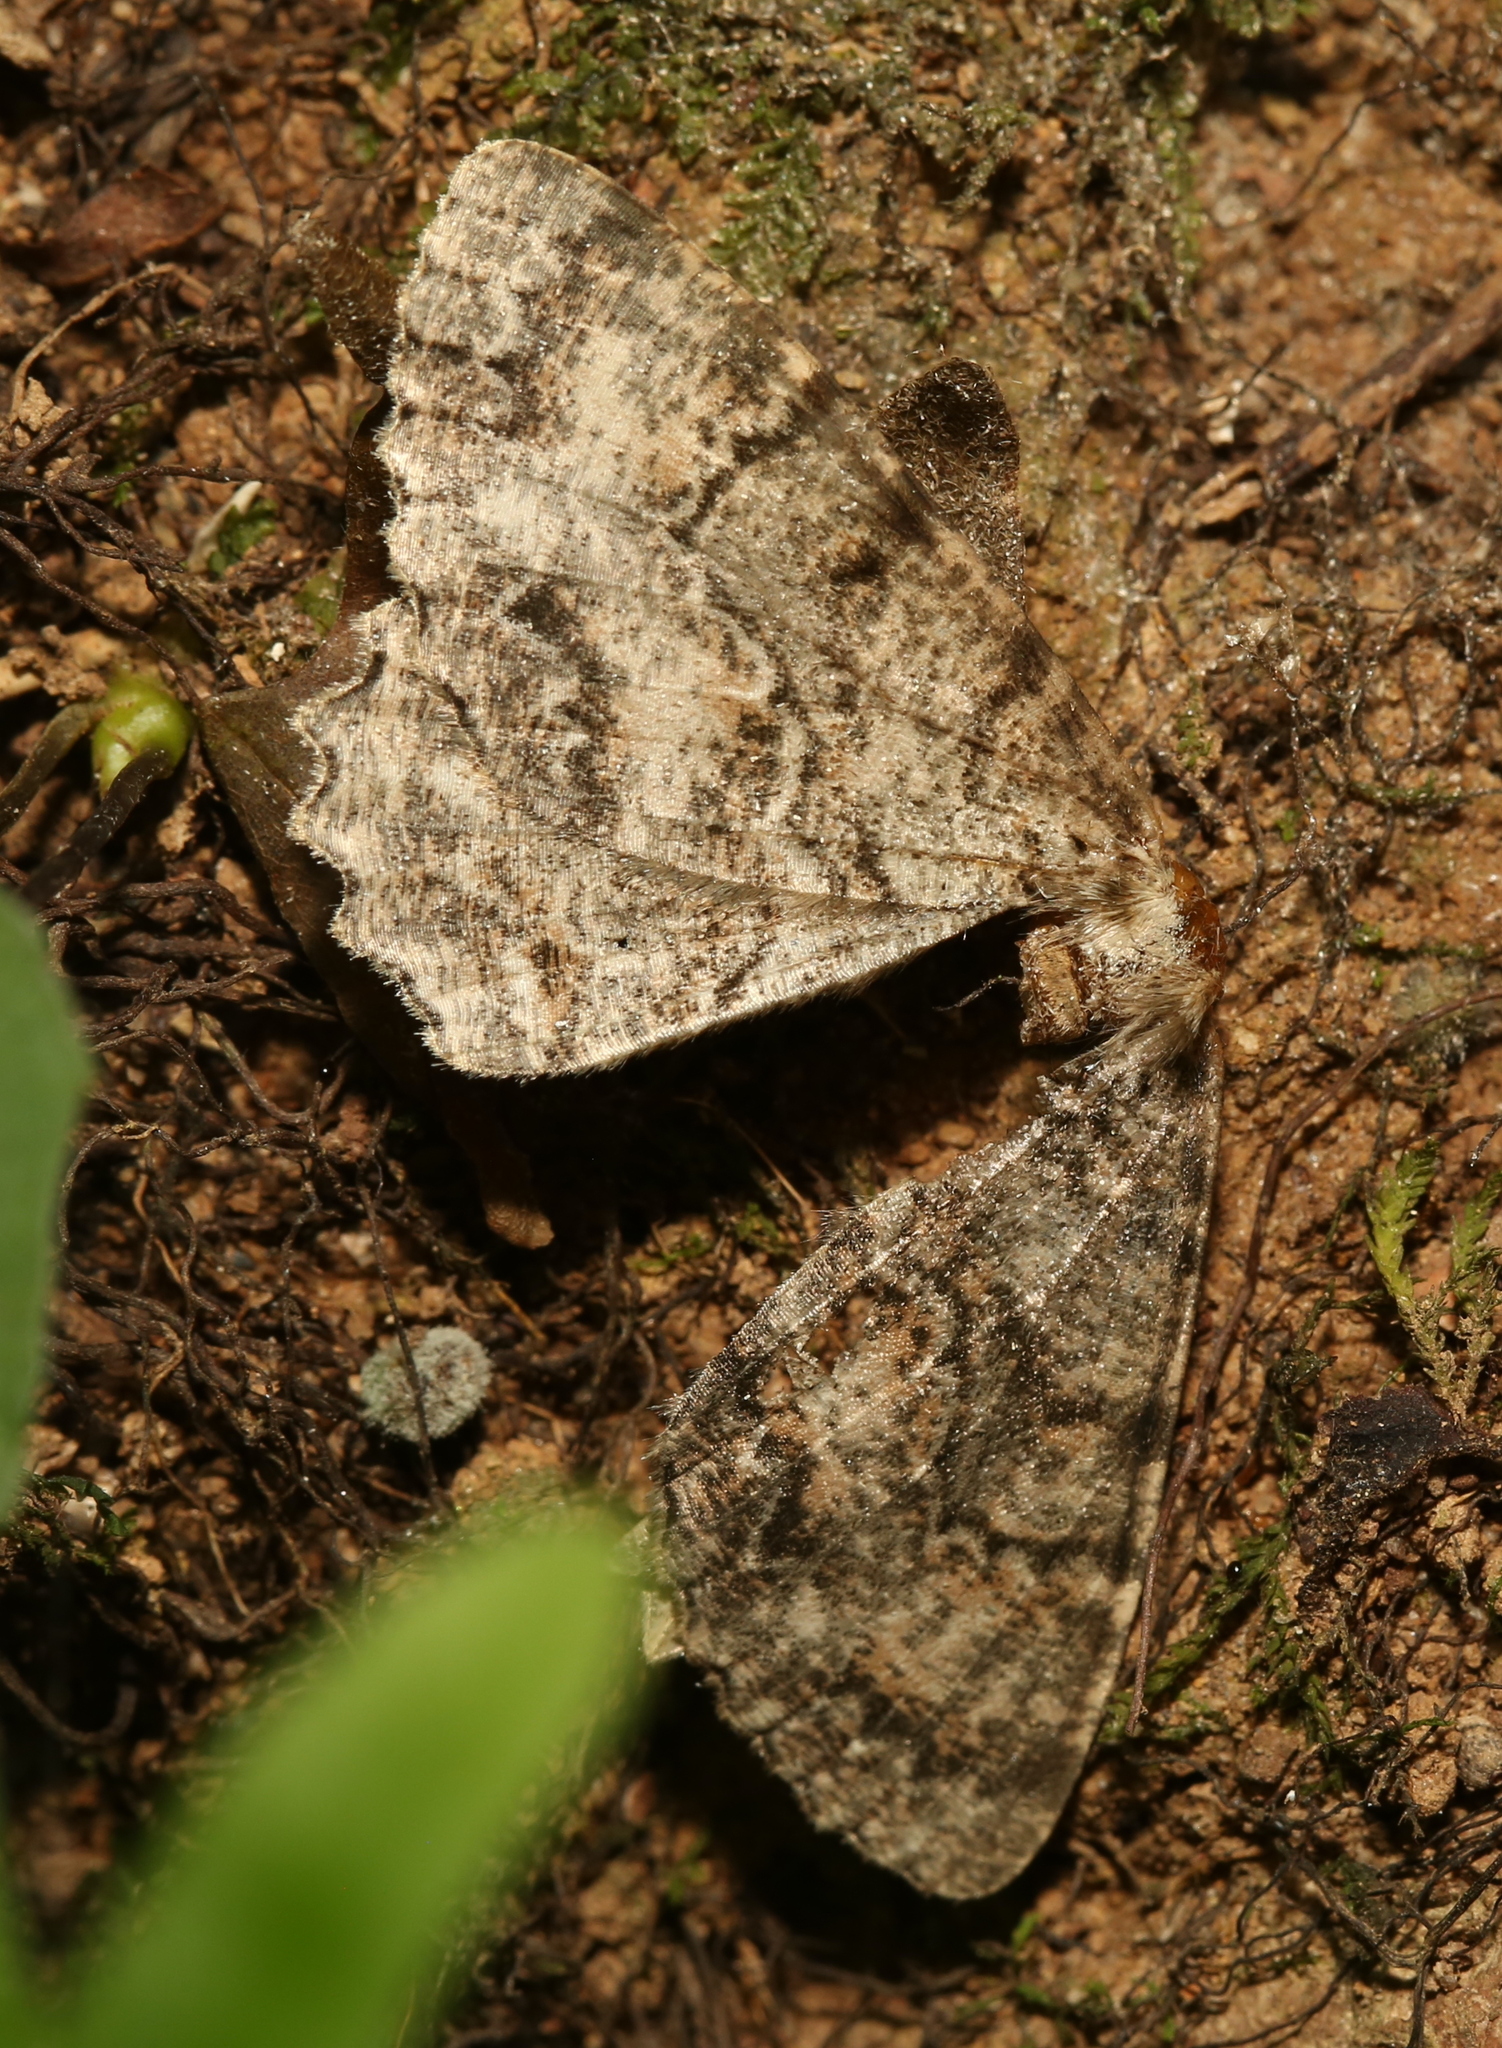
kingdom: Animalia
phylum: Arthropoda
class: Insecta
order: Lepidoptera
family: Geometridae
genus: Epimecis
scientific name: Epimecis hortaria
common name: Tulip-tree beauty
